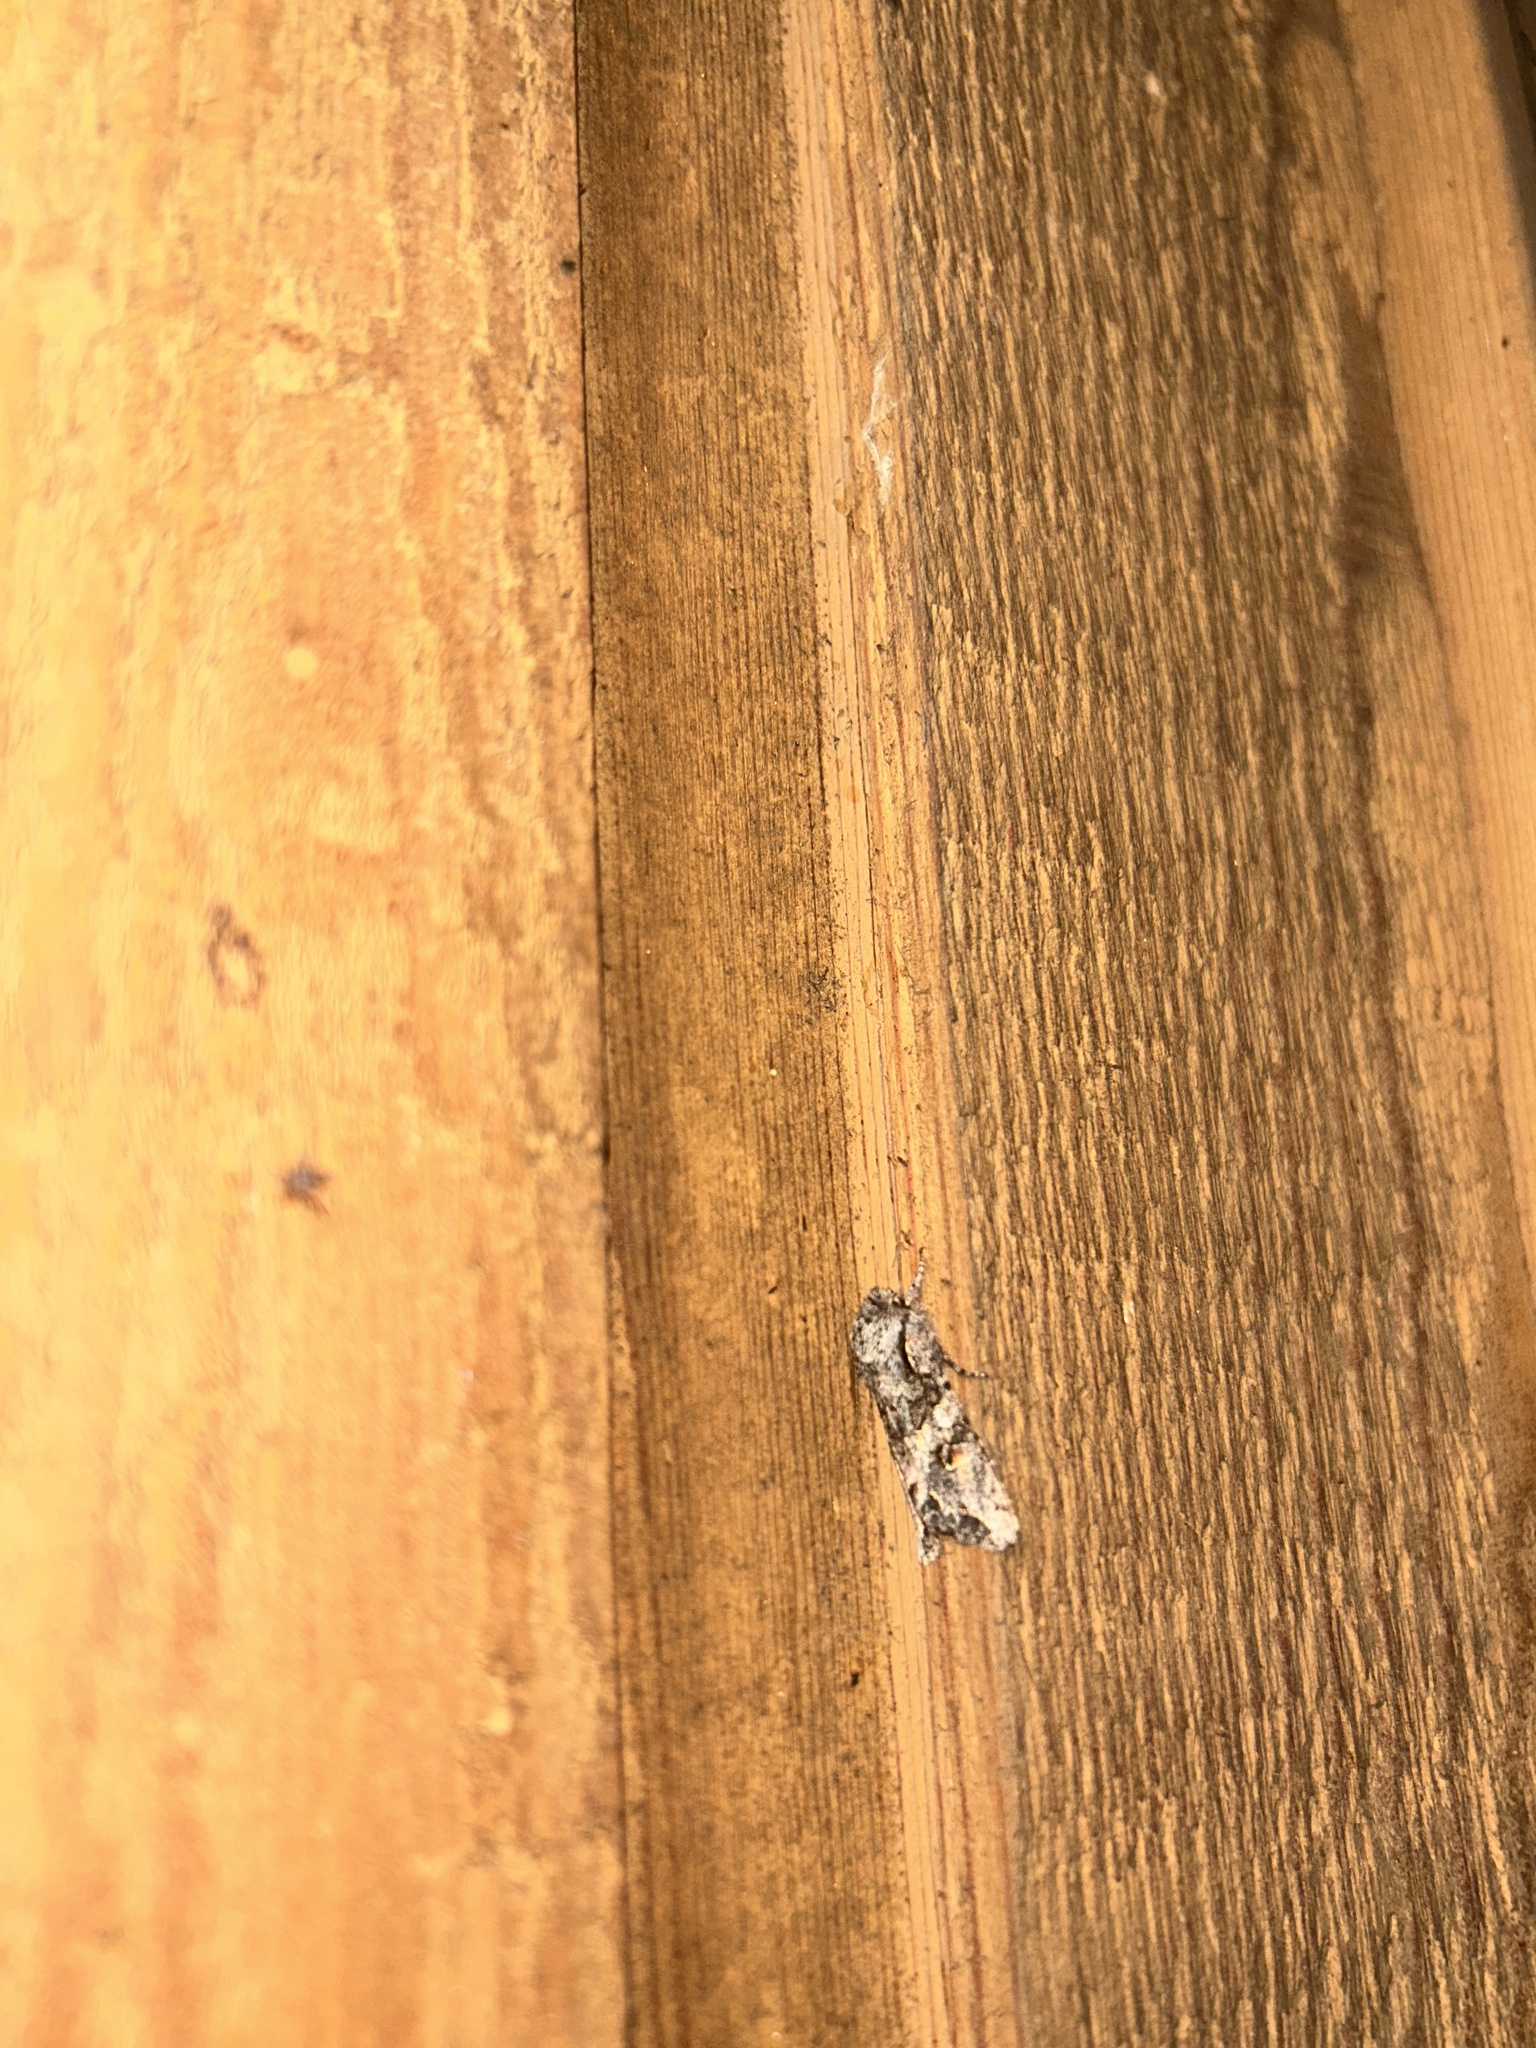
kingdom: Animalia
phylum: Arthropoda
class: Insecta
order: Lepidoptera
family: Noctuidae
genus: Egira
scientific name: Egira hiemalis
